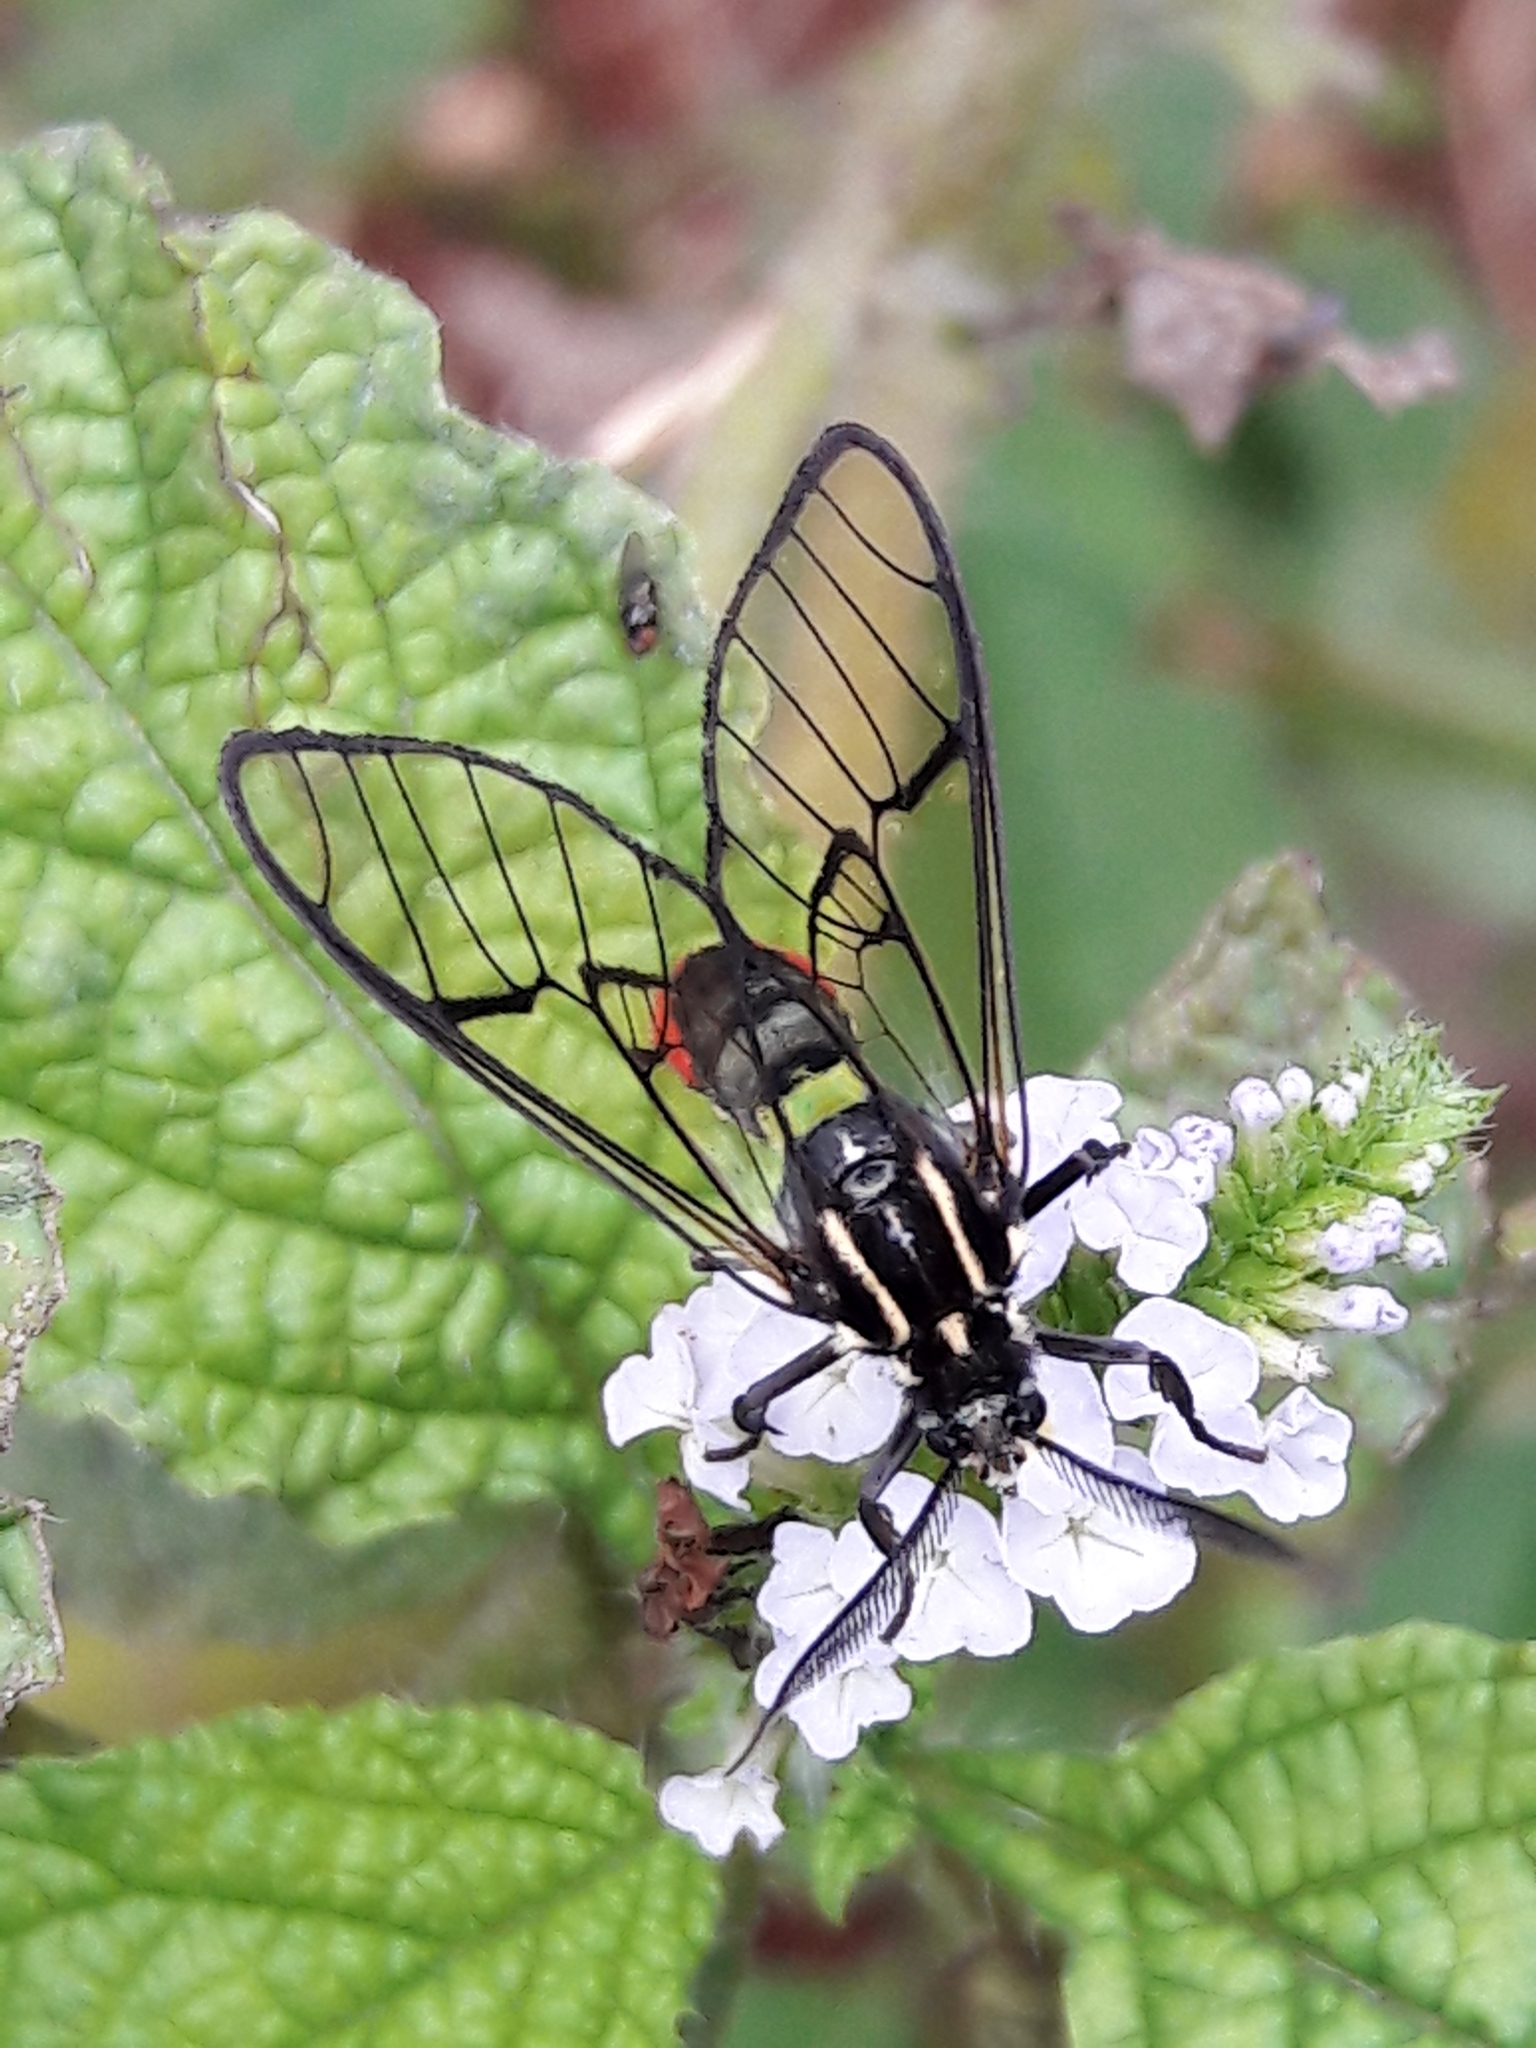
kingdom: Animalia
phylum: Arthropoda
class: Insecta
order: Lepidoptera
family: Erebidae
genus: Argyroeides
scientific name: Argyroeides ophion
